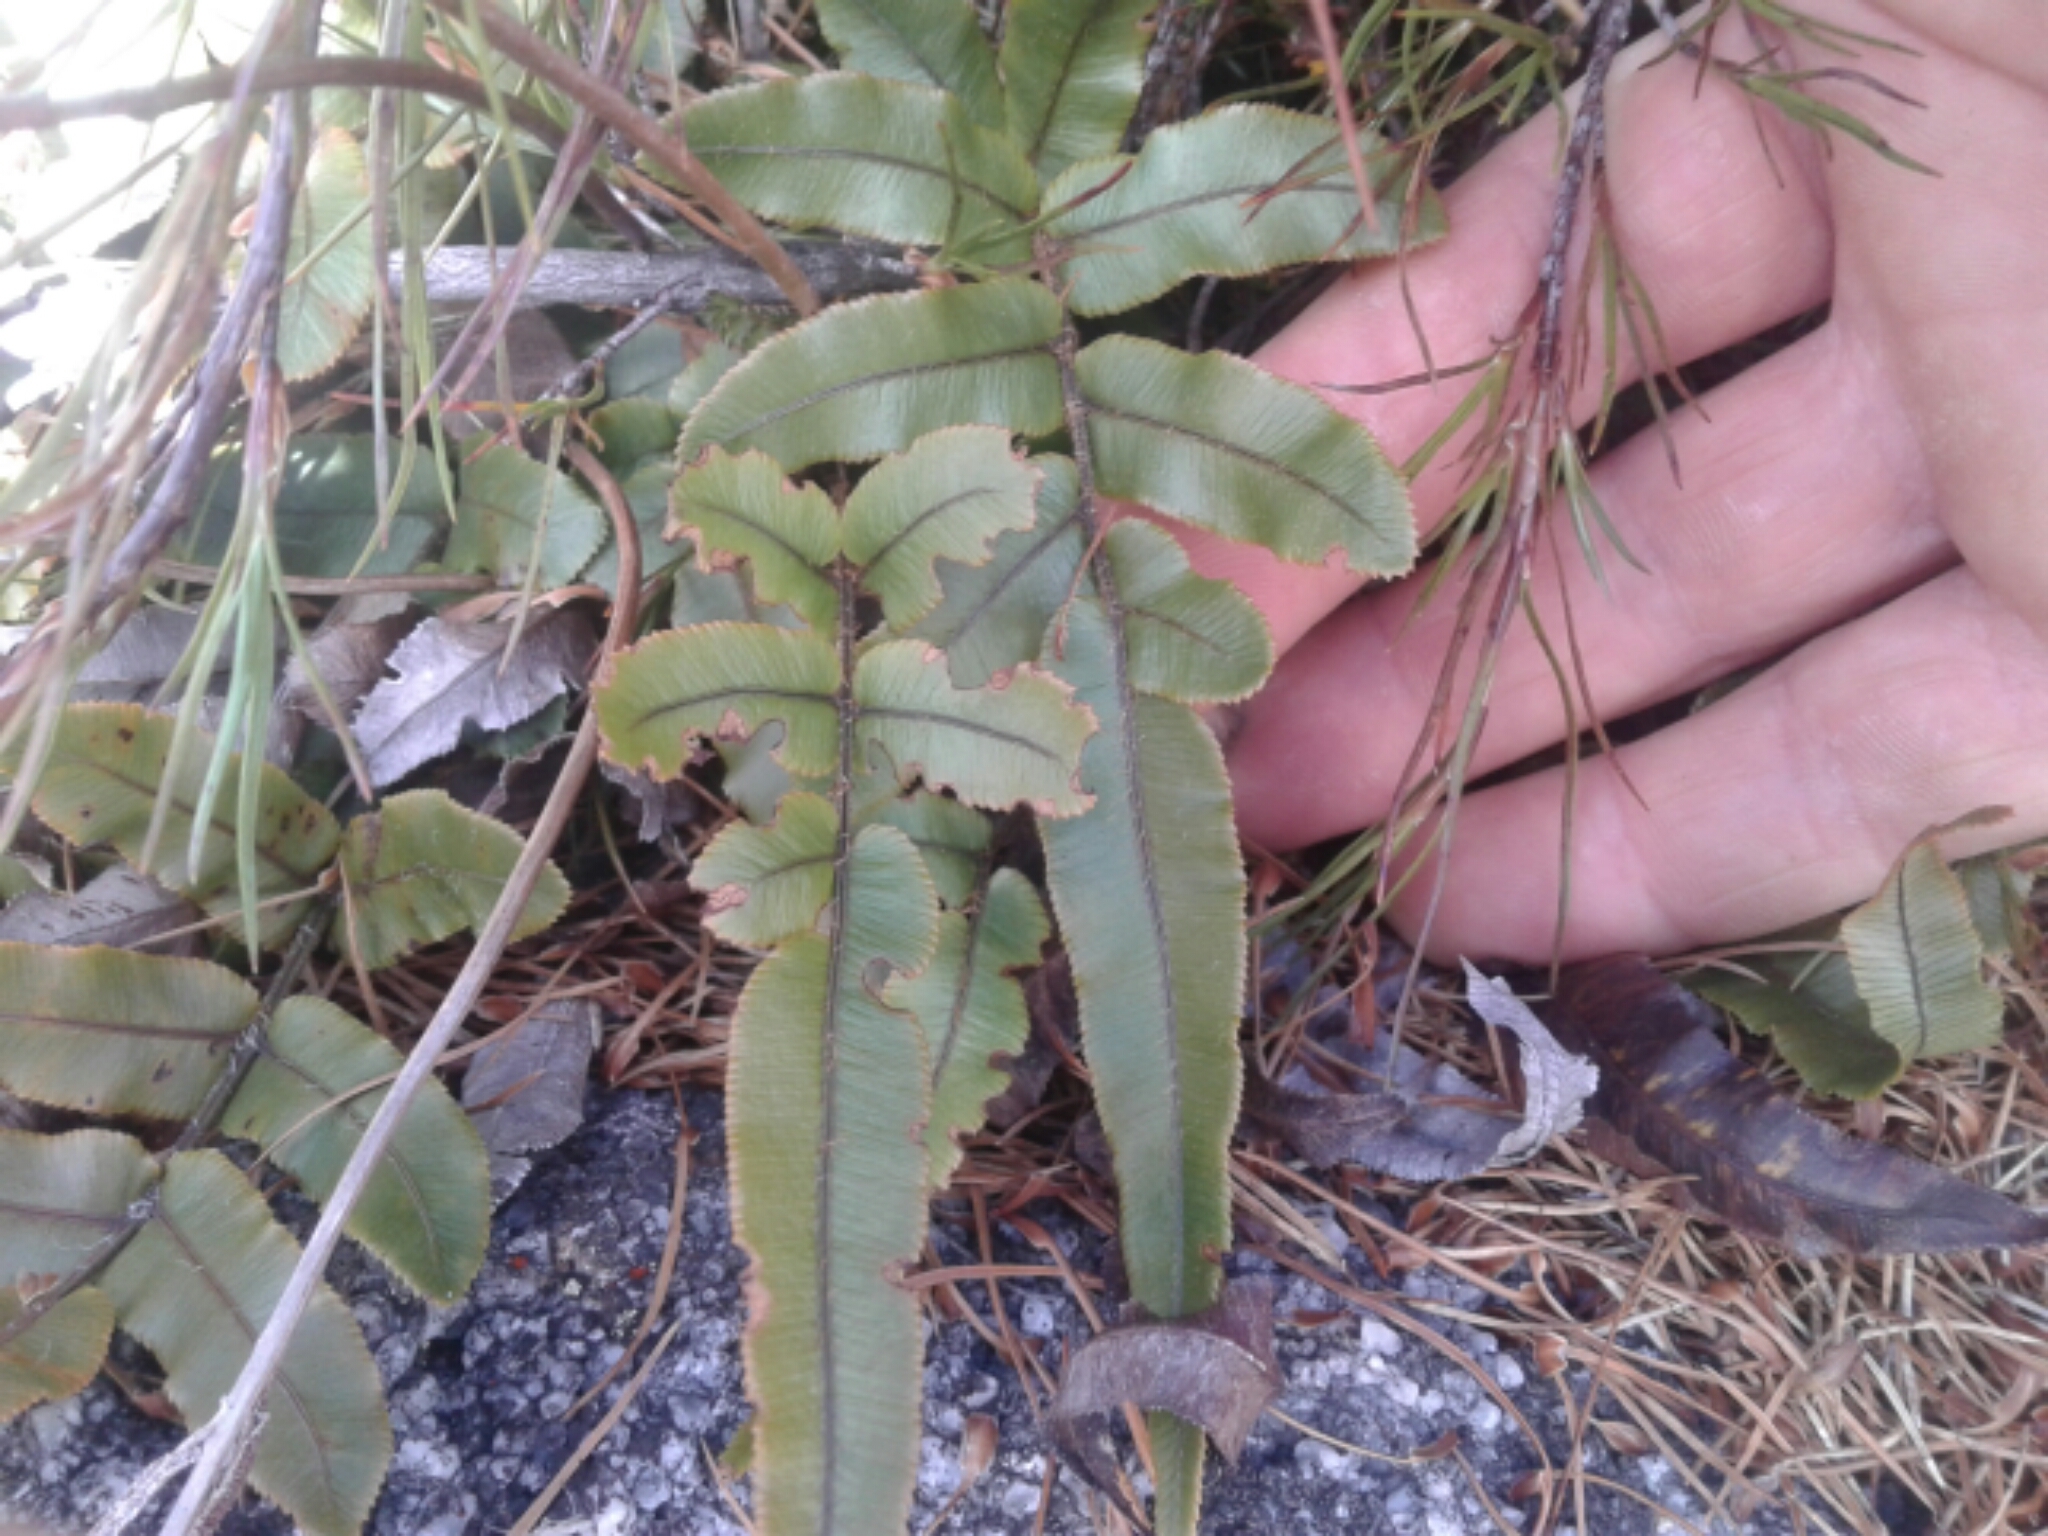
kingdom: Plantae
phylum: Tracheophyta
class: Polypodiopsida
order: Polypodiales
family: Blechnaceae
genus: Parablechnum
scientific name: Parablechnum procerum
